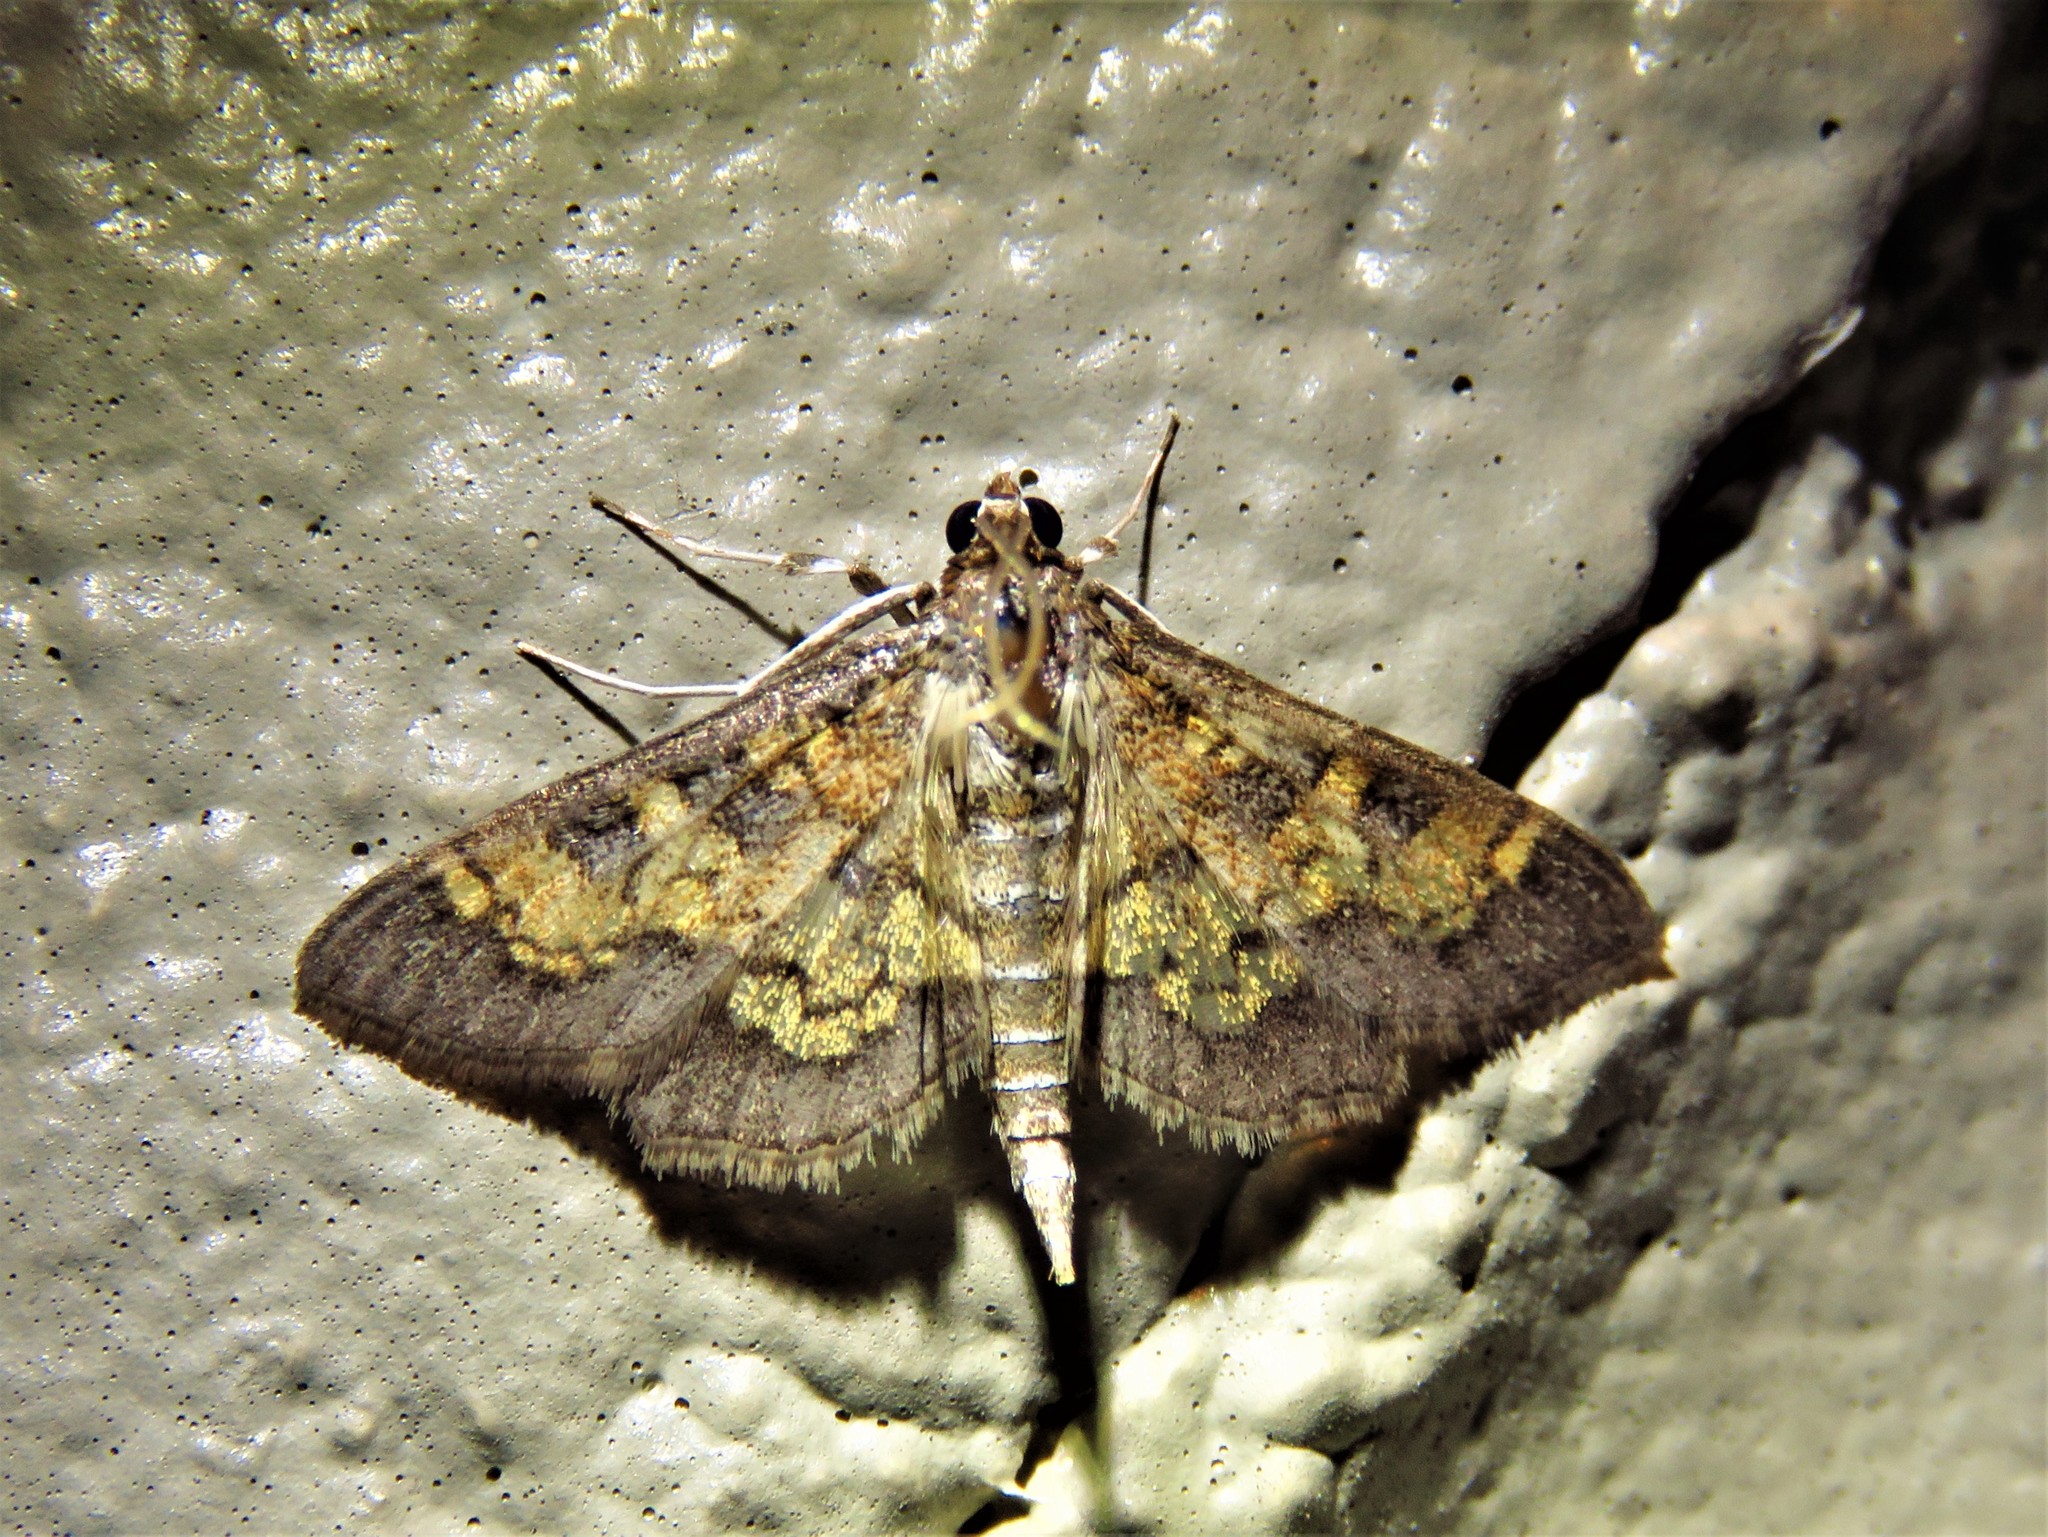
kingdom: Animalia
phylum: Arthropoda
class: Insecta
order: Lepidoptera
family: Crambidae
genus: Cryptographis
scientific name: Cryptographis elealis
